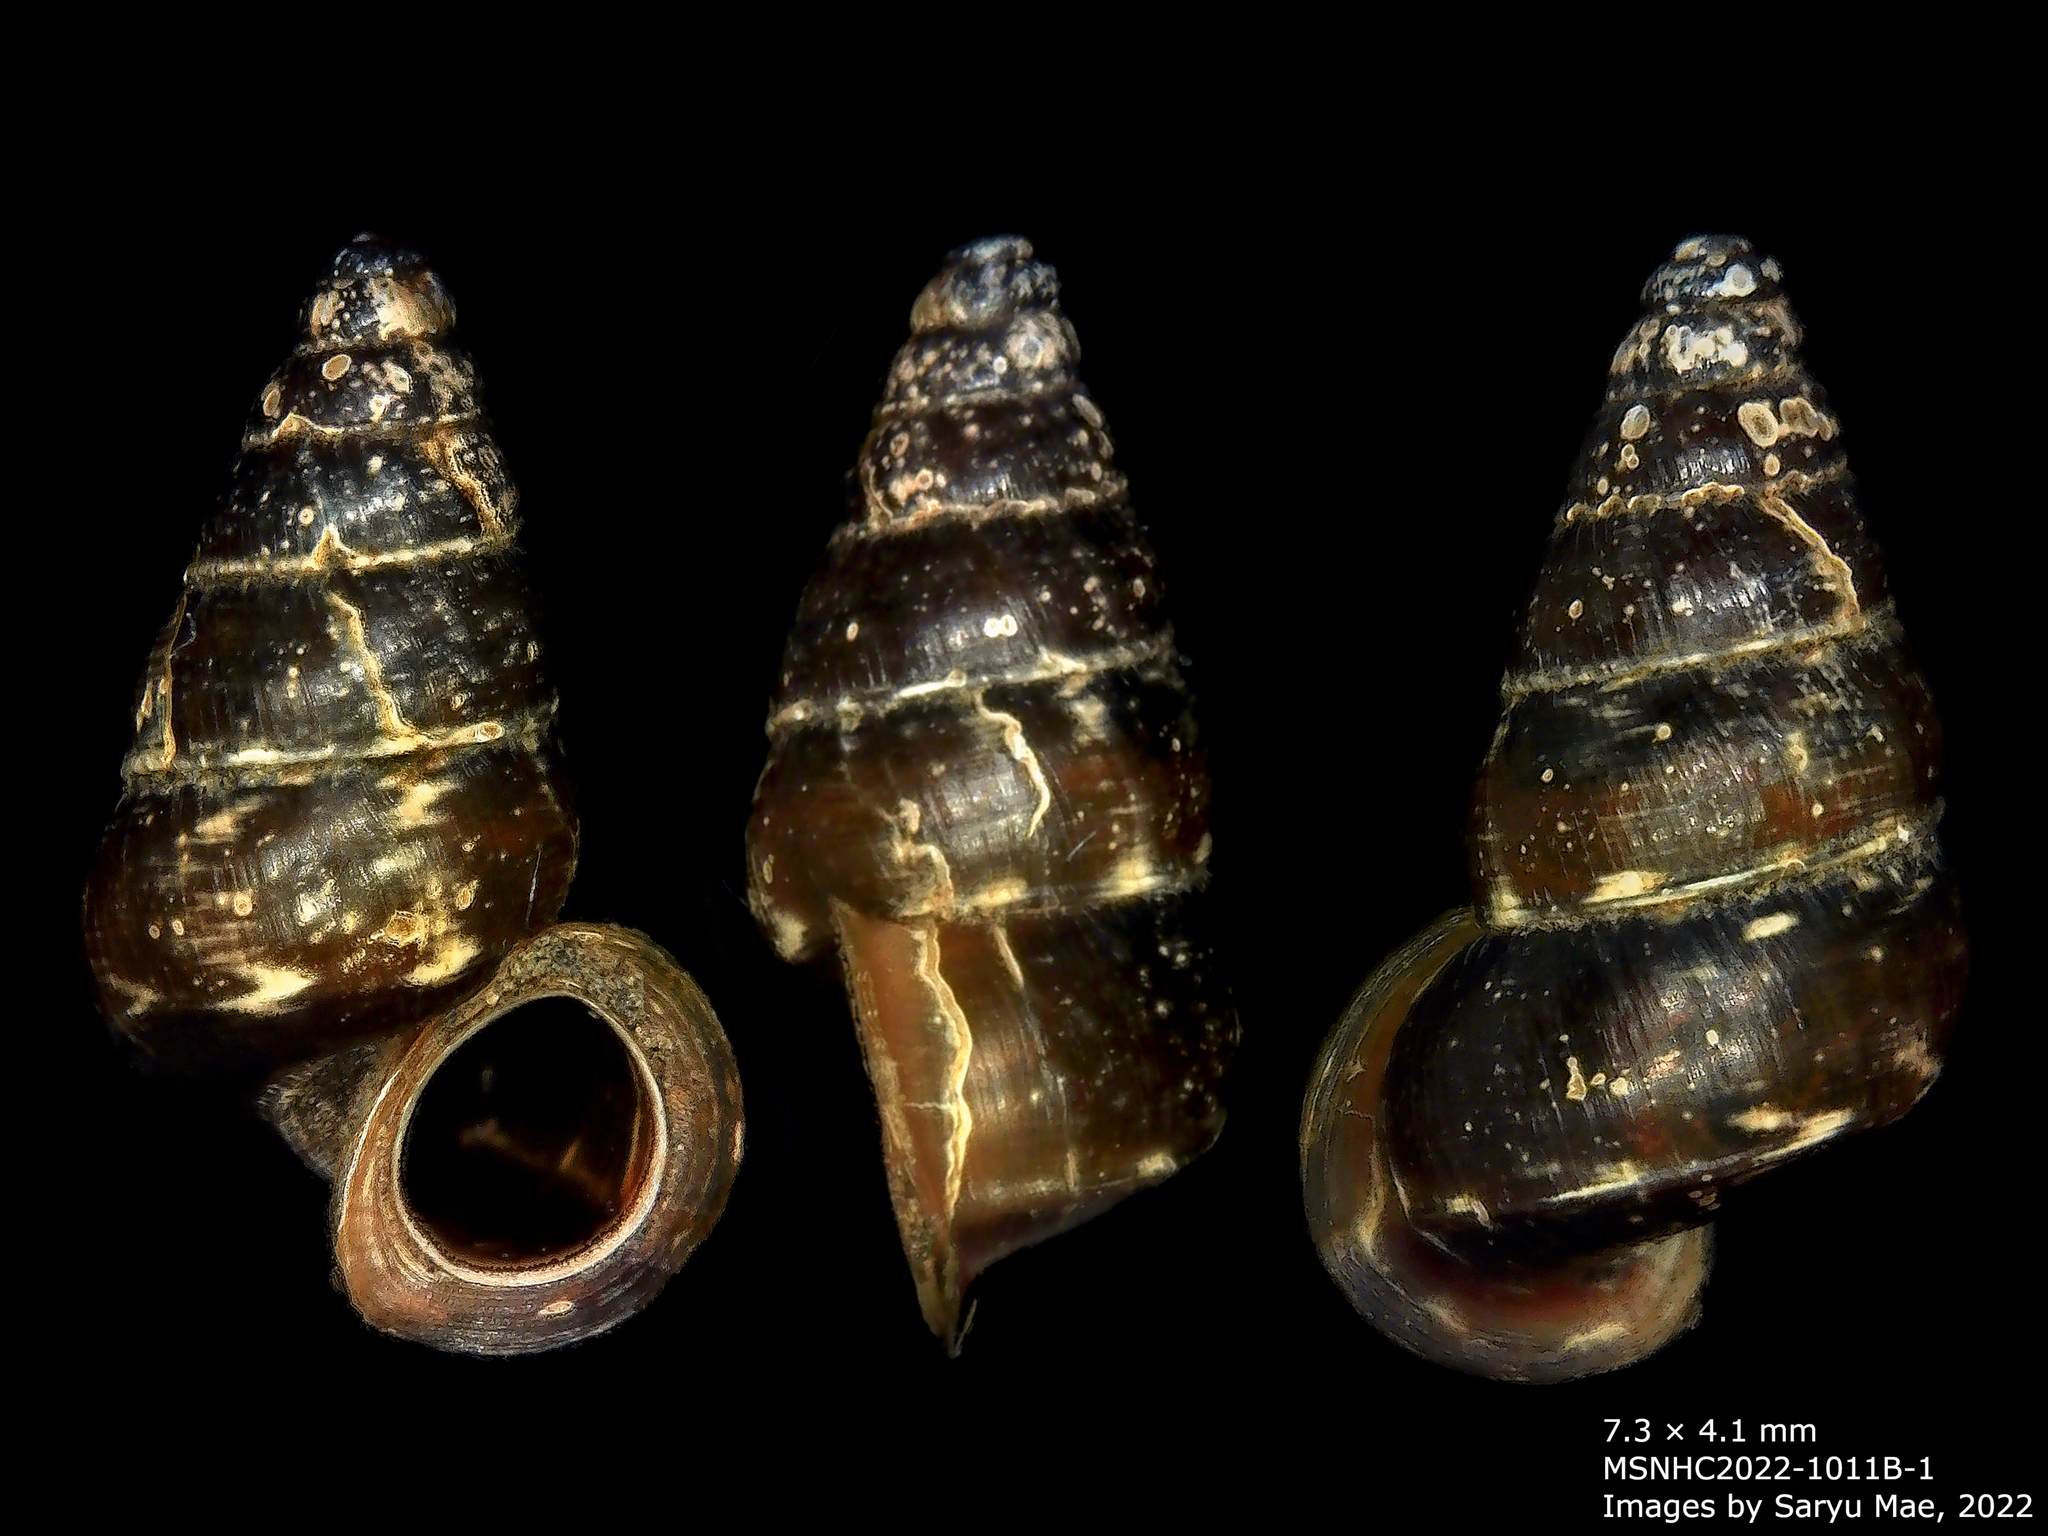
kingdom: Animalia
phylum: Mollusca
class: Gastropoda
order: Architaenioglossa
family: Pupinidae
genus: Liarea
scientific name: Liarea ornata
